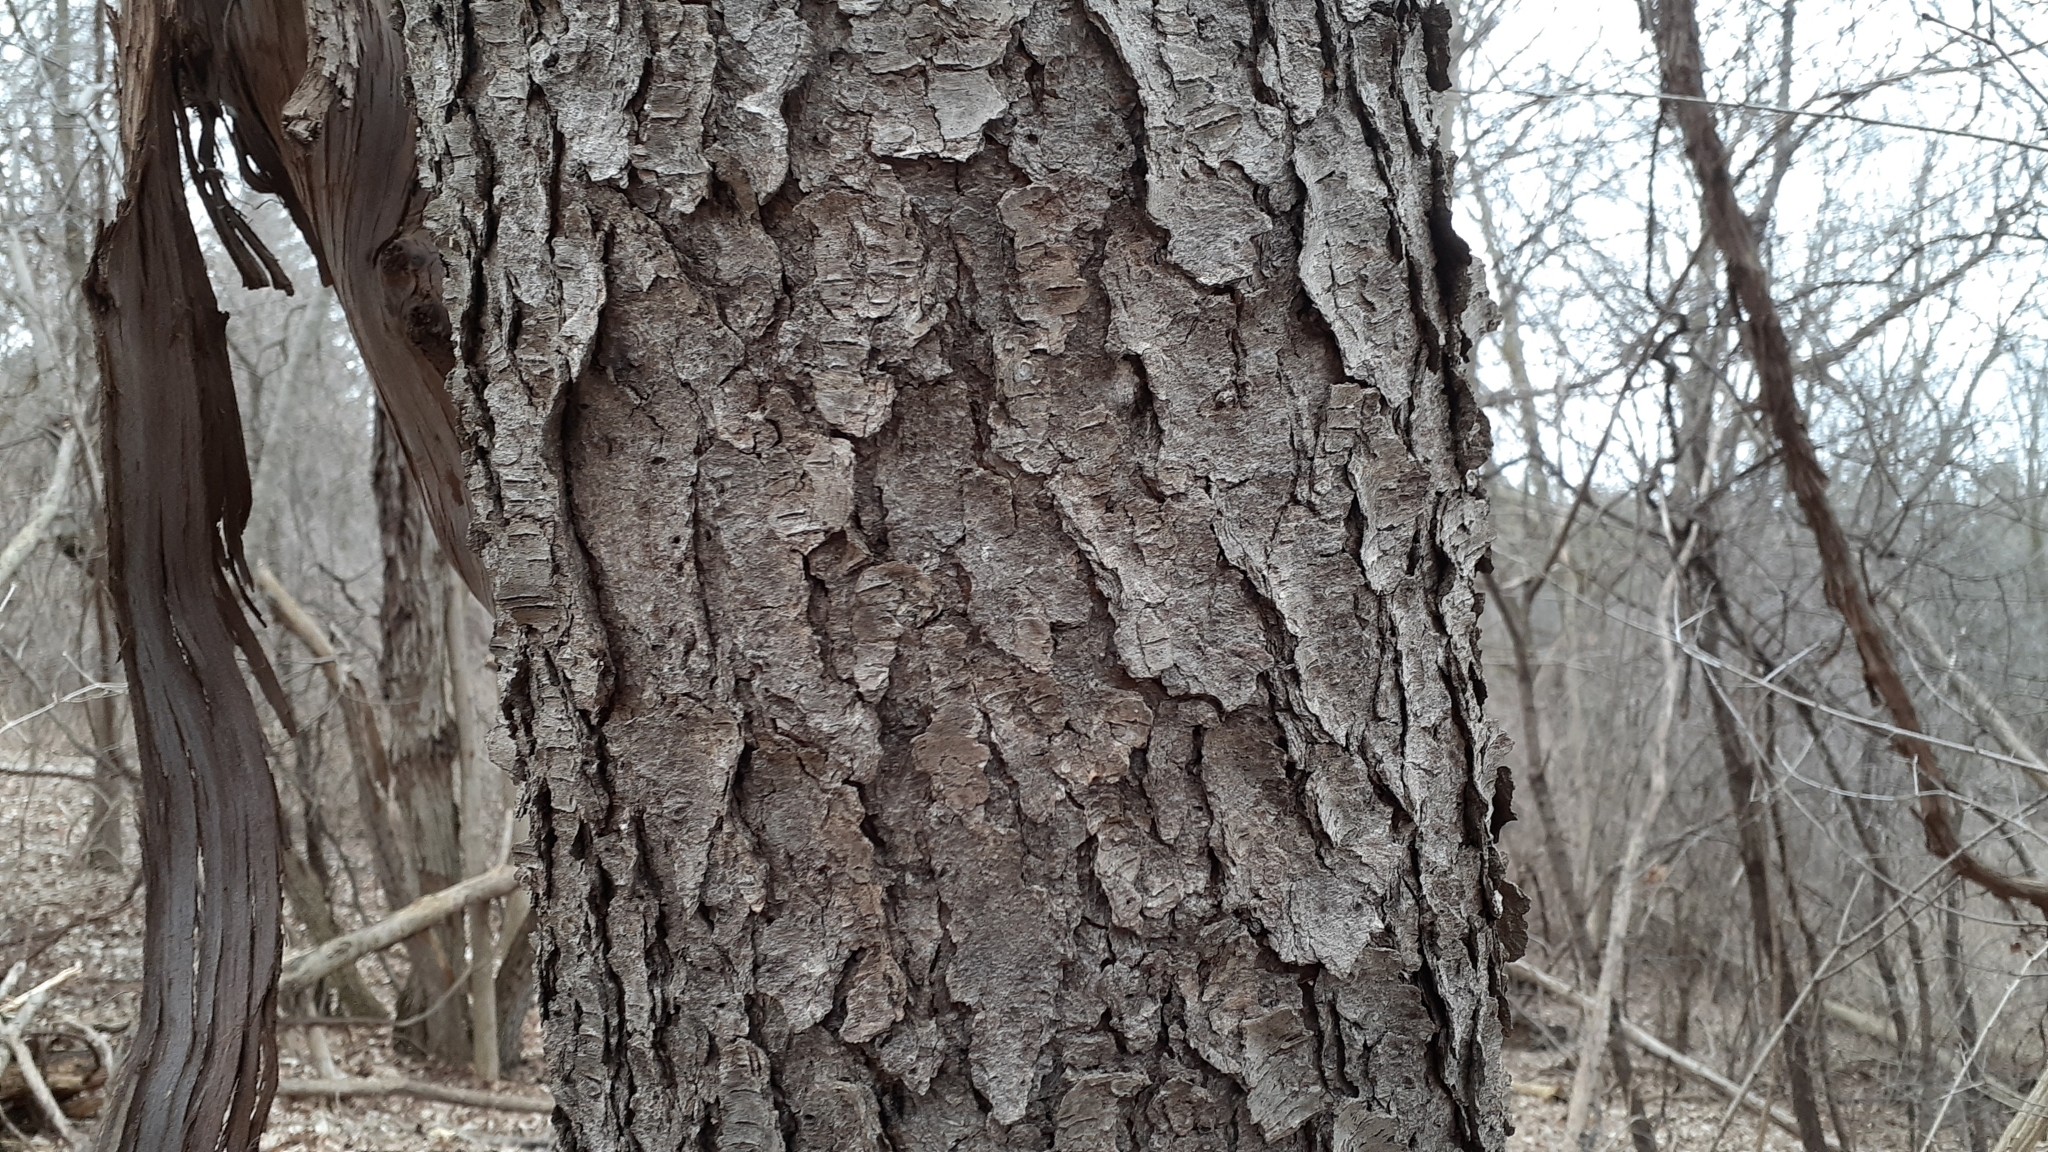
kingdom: Plantae
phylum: Tracheophyta
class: Magnoliopsida
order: Rosales
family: Rosaceae
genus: Prunus
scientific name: Prunus serotina
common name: Black cherry
